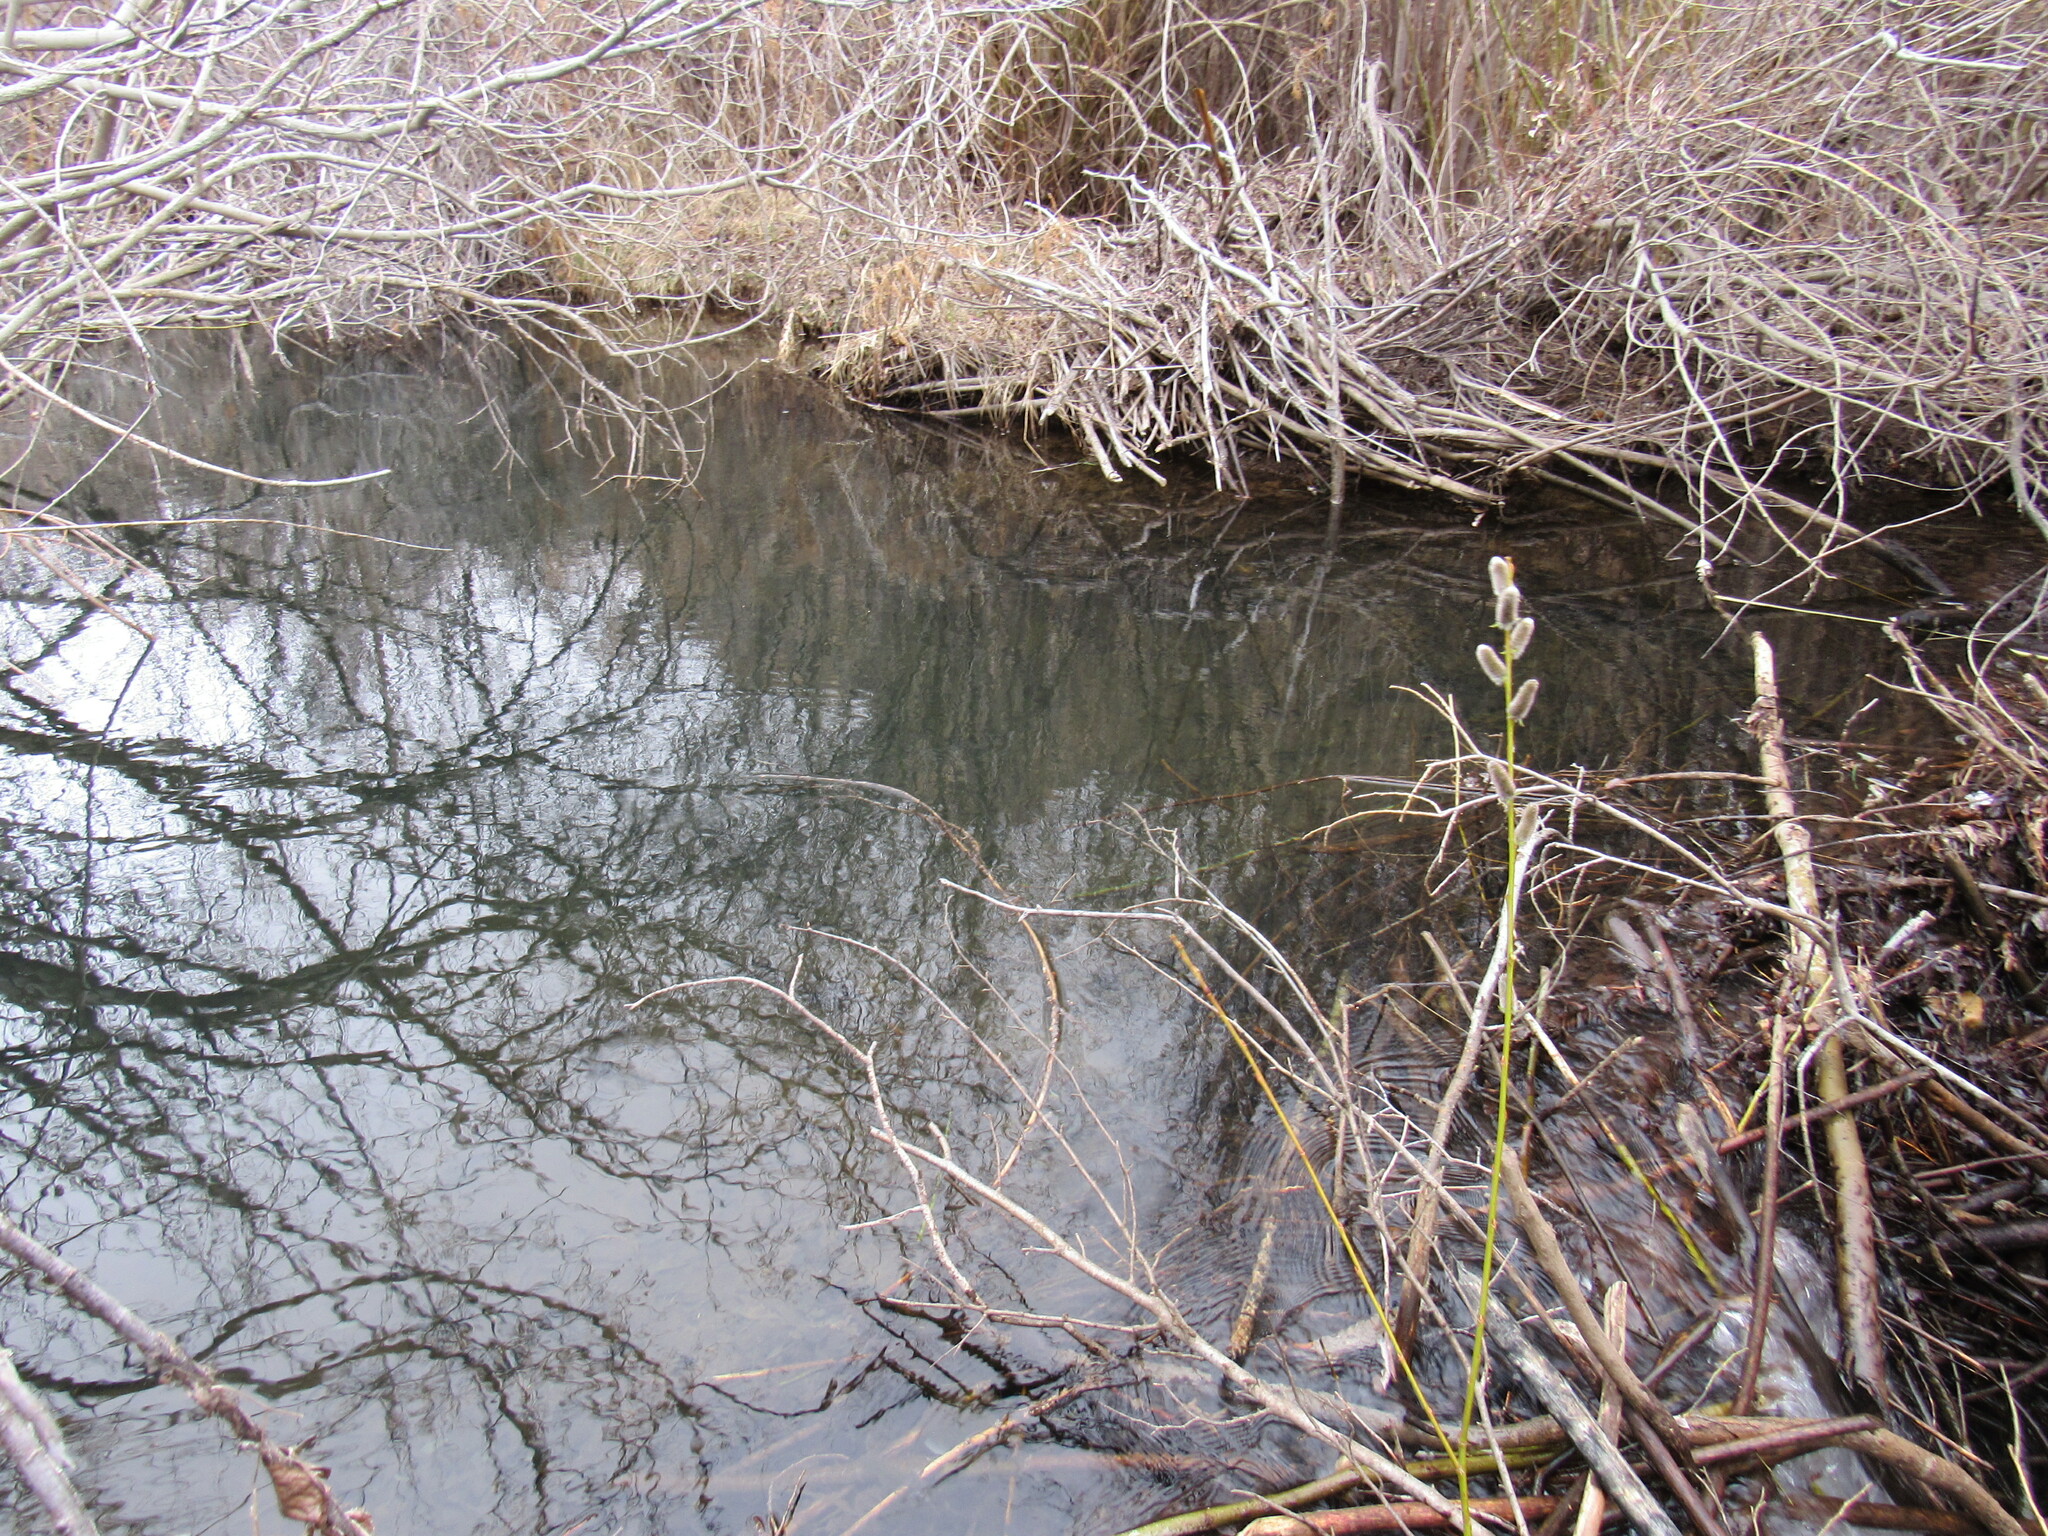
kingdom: Animalia
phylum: Chordata
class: Mammalia
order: Rodentia
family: Castoridae
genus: Castor
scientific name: Castor canadensis
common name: American beaver
